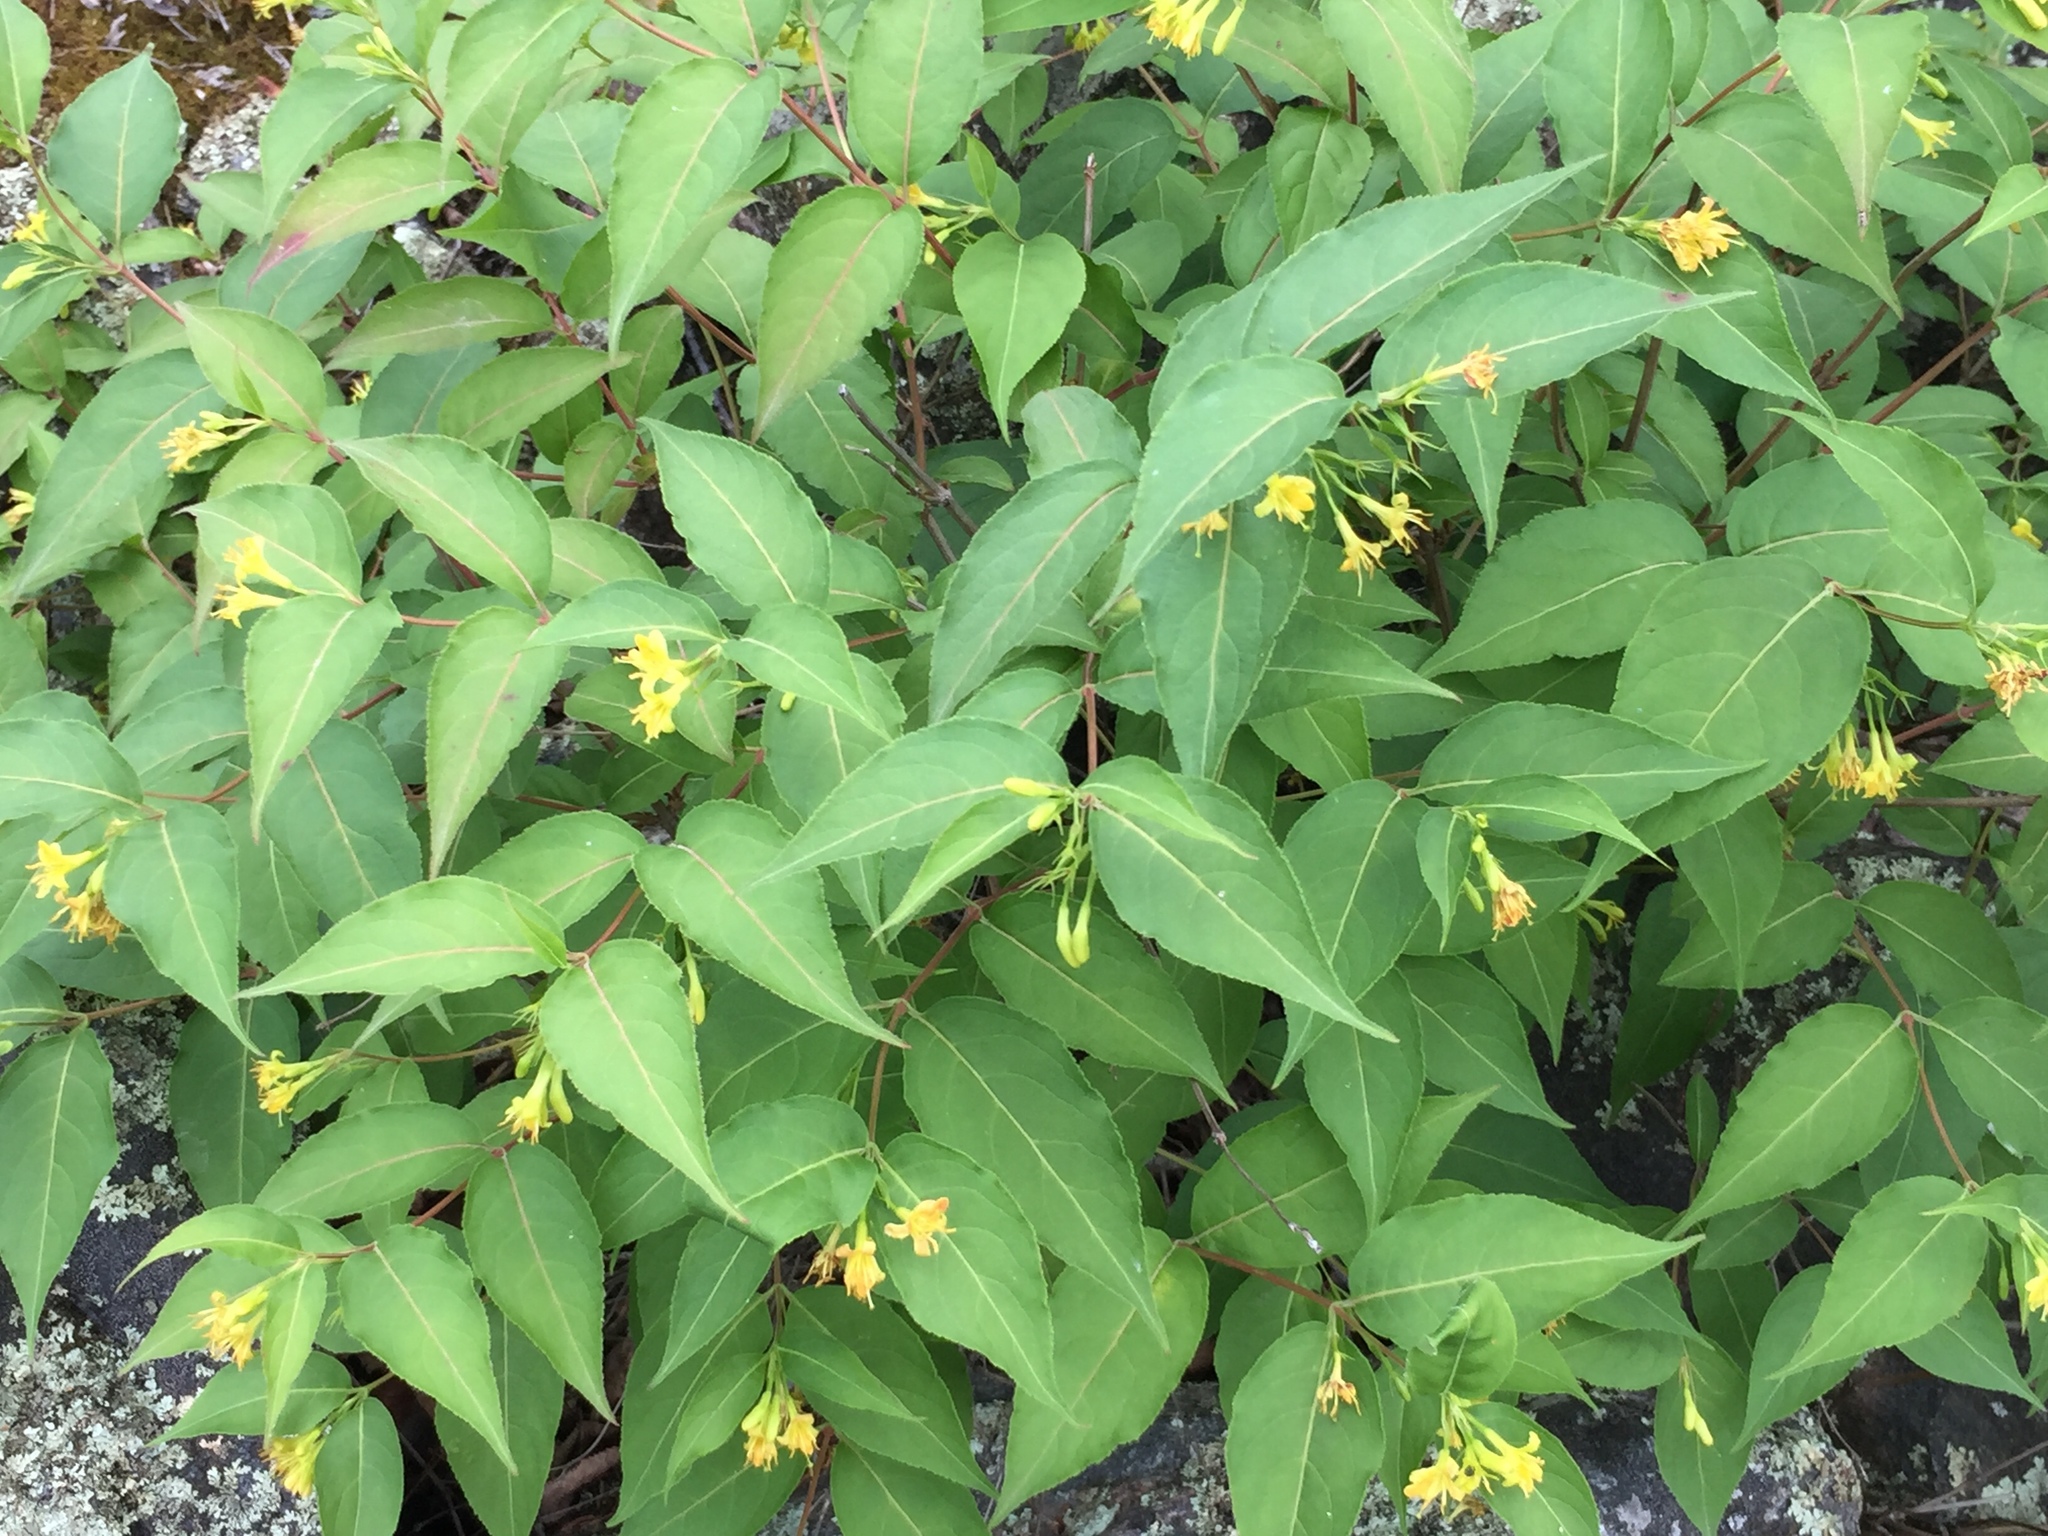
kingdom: Plantae
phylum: Tracheophyta
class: Magnoliopsida
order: Dipsacales
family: Caprifoliaceae
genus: Diervilla
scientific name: Diervilla lonicera
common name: Bush-honeysuckle
